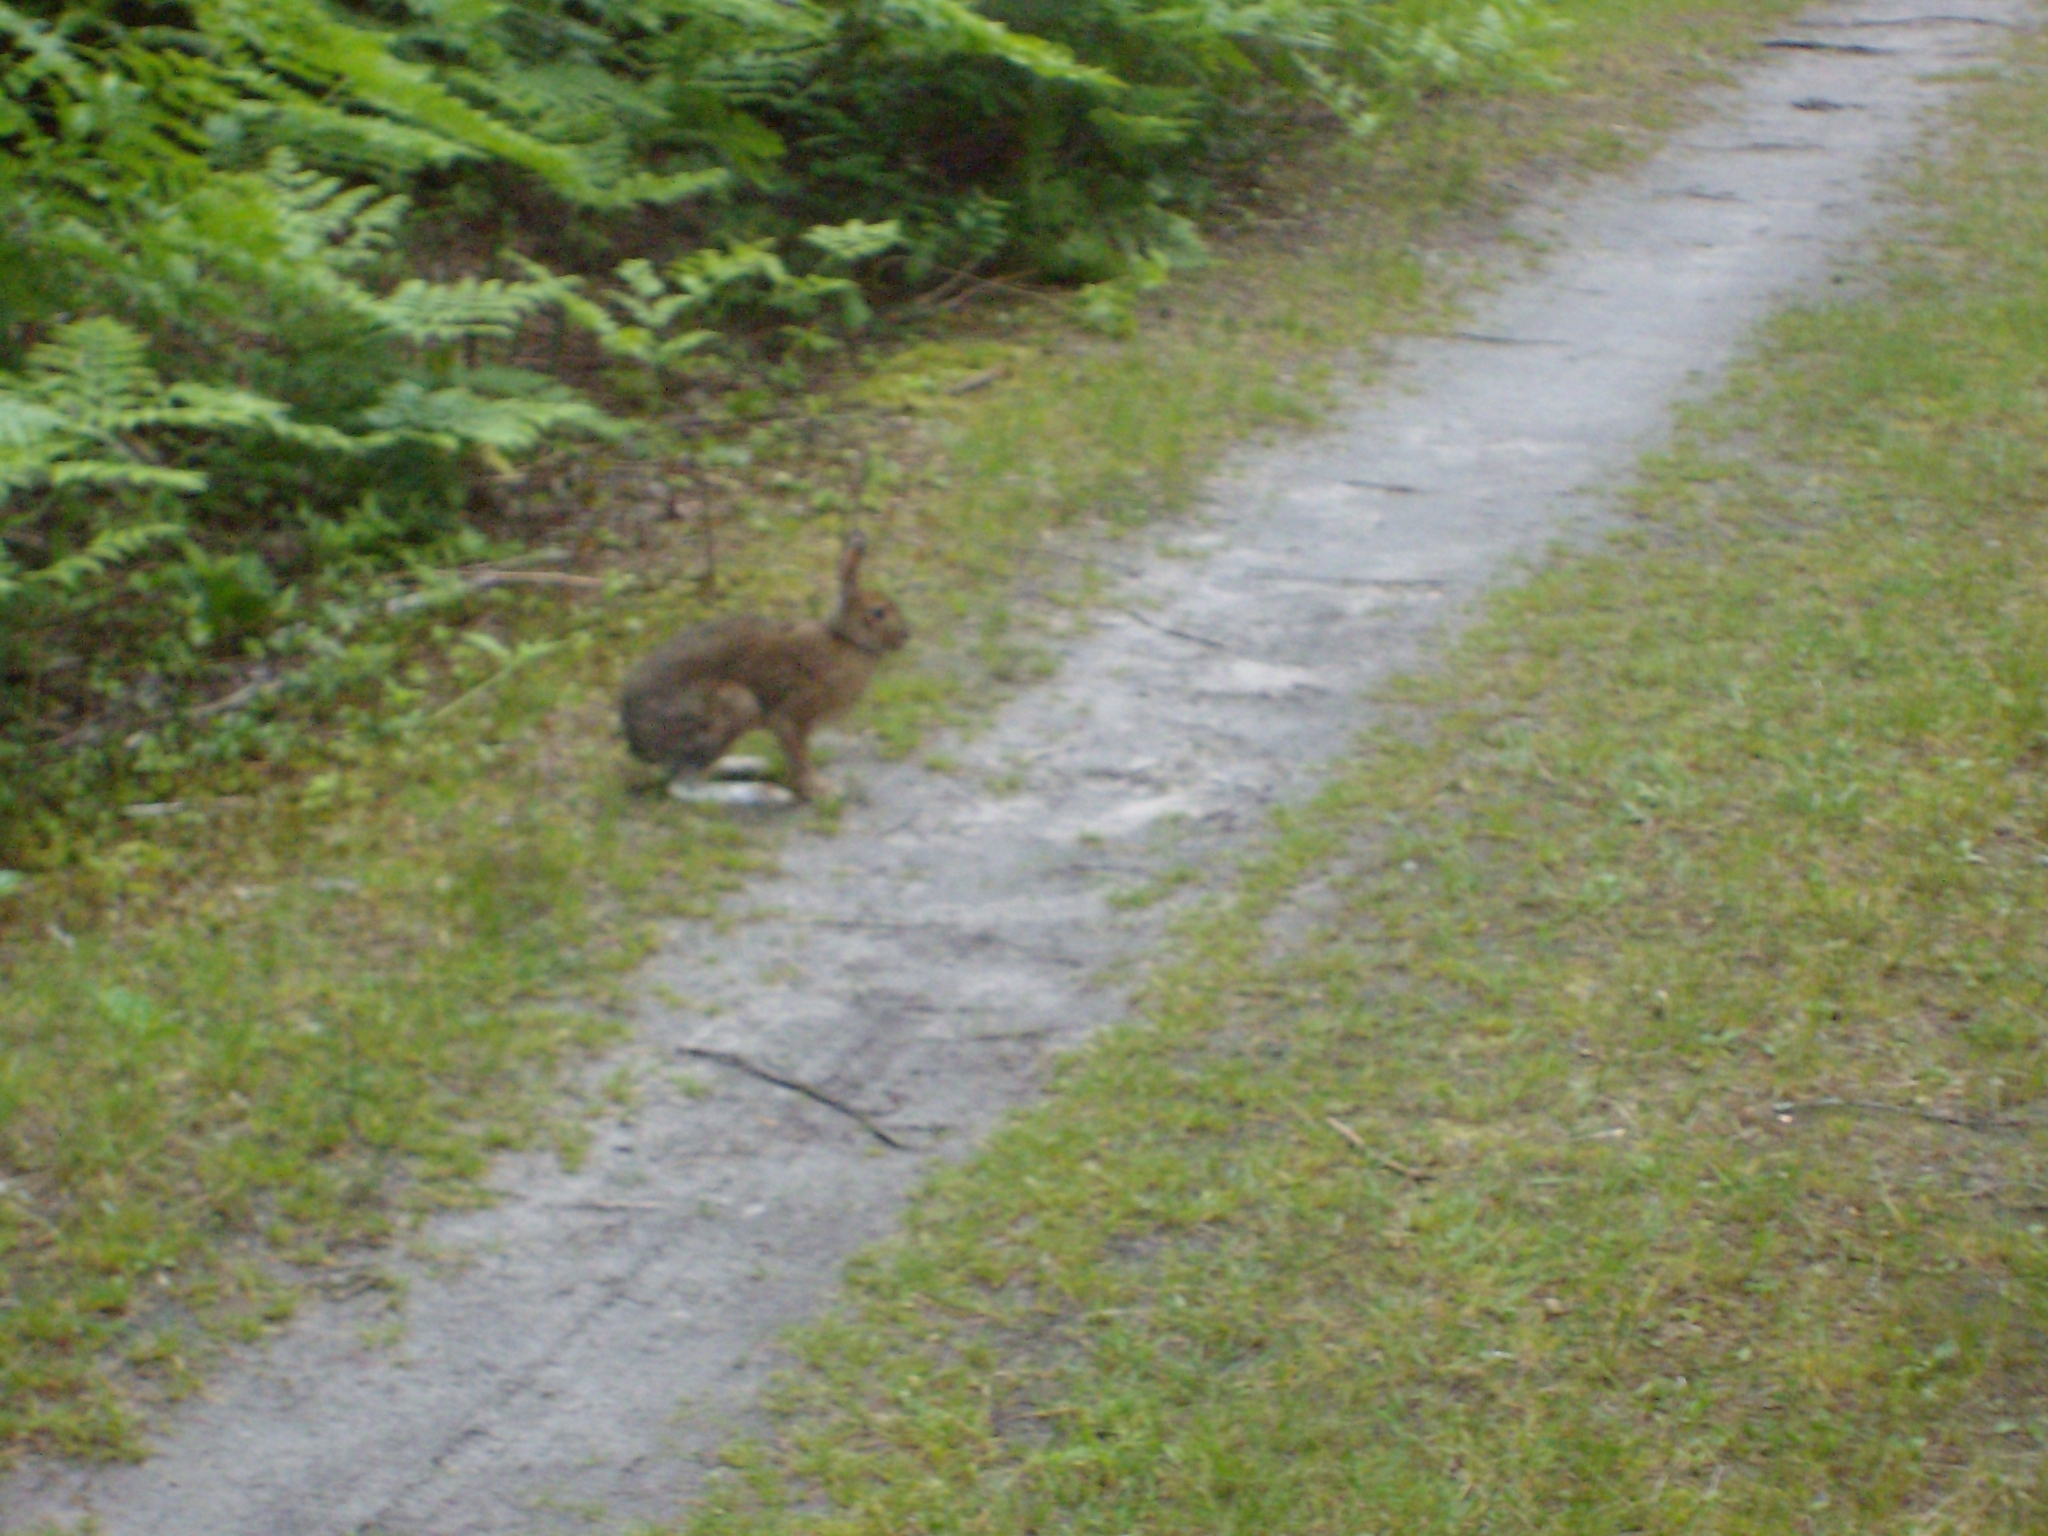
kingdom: Animalia
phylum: Chordata
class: Mammalia
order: Lagomorpha
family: Leporidae
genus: Lepus
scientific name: Lepus americanus
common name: Snowshoe hare
